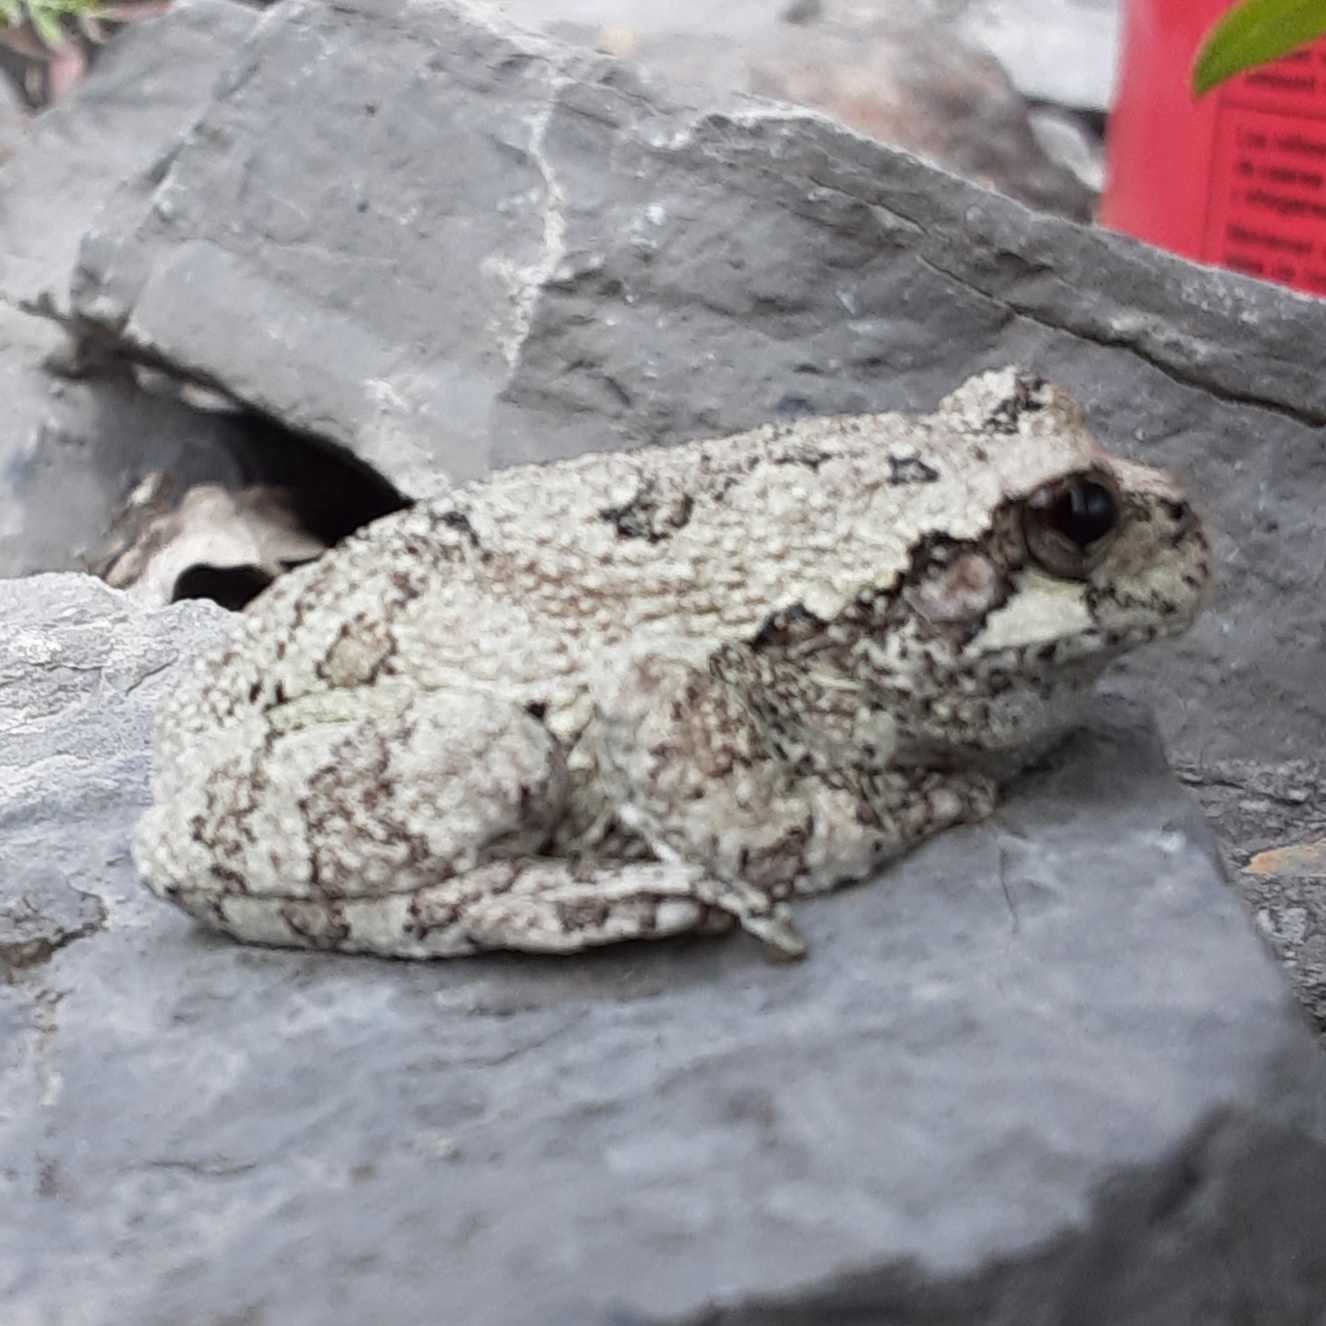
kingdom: Animalia
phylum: Chordata
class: Amphibia
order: Anura
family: Hylidae
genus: Dryophytes
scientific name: Dryophytes versicolor
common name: Gray treefrog
